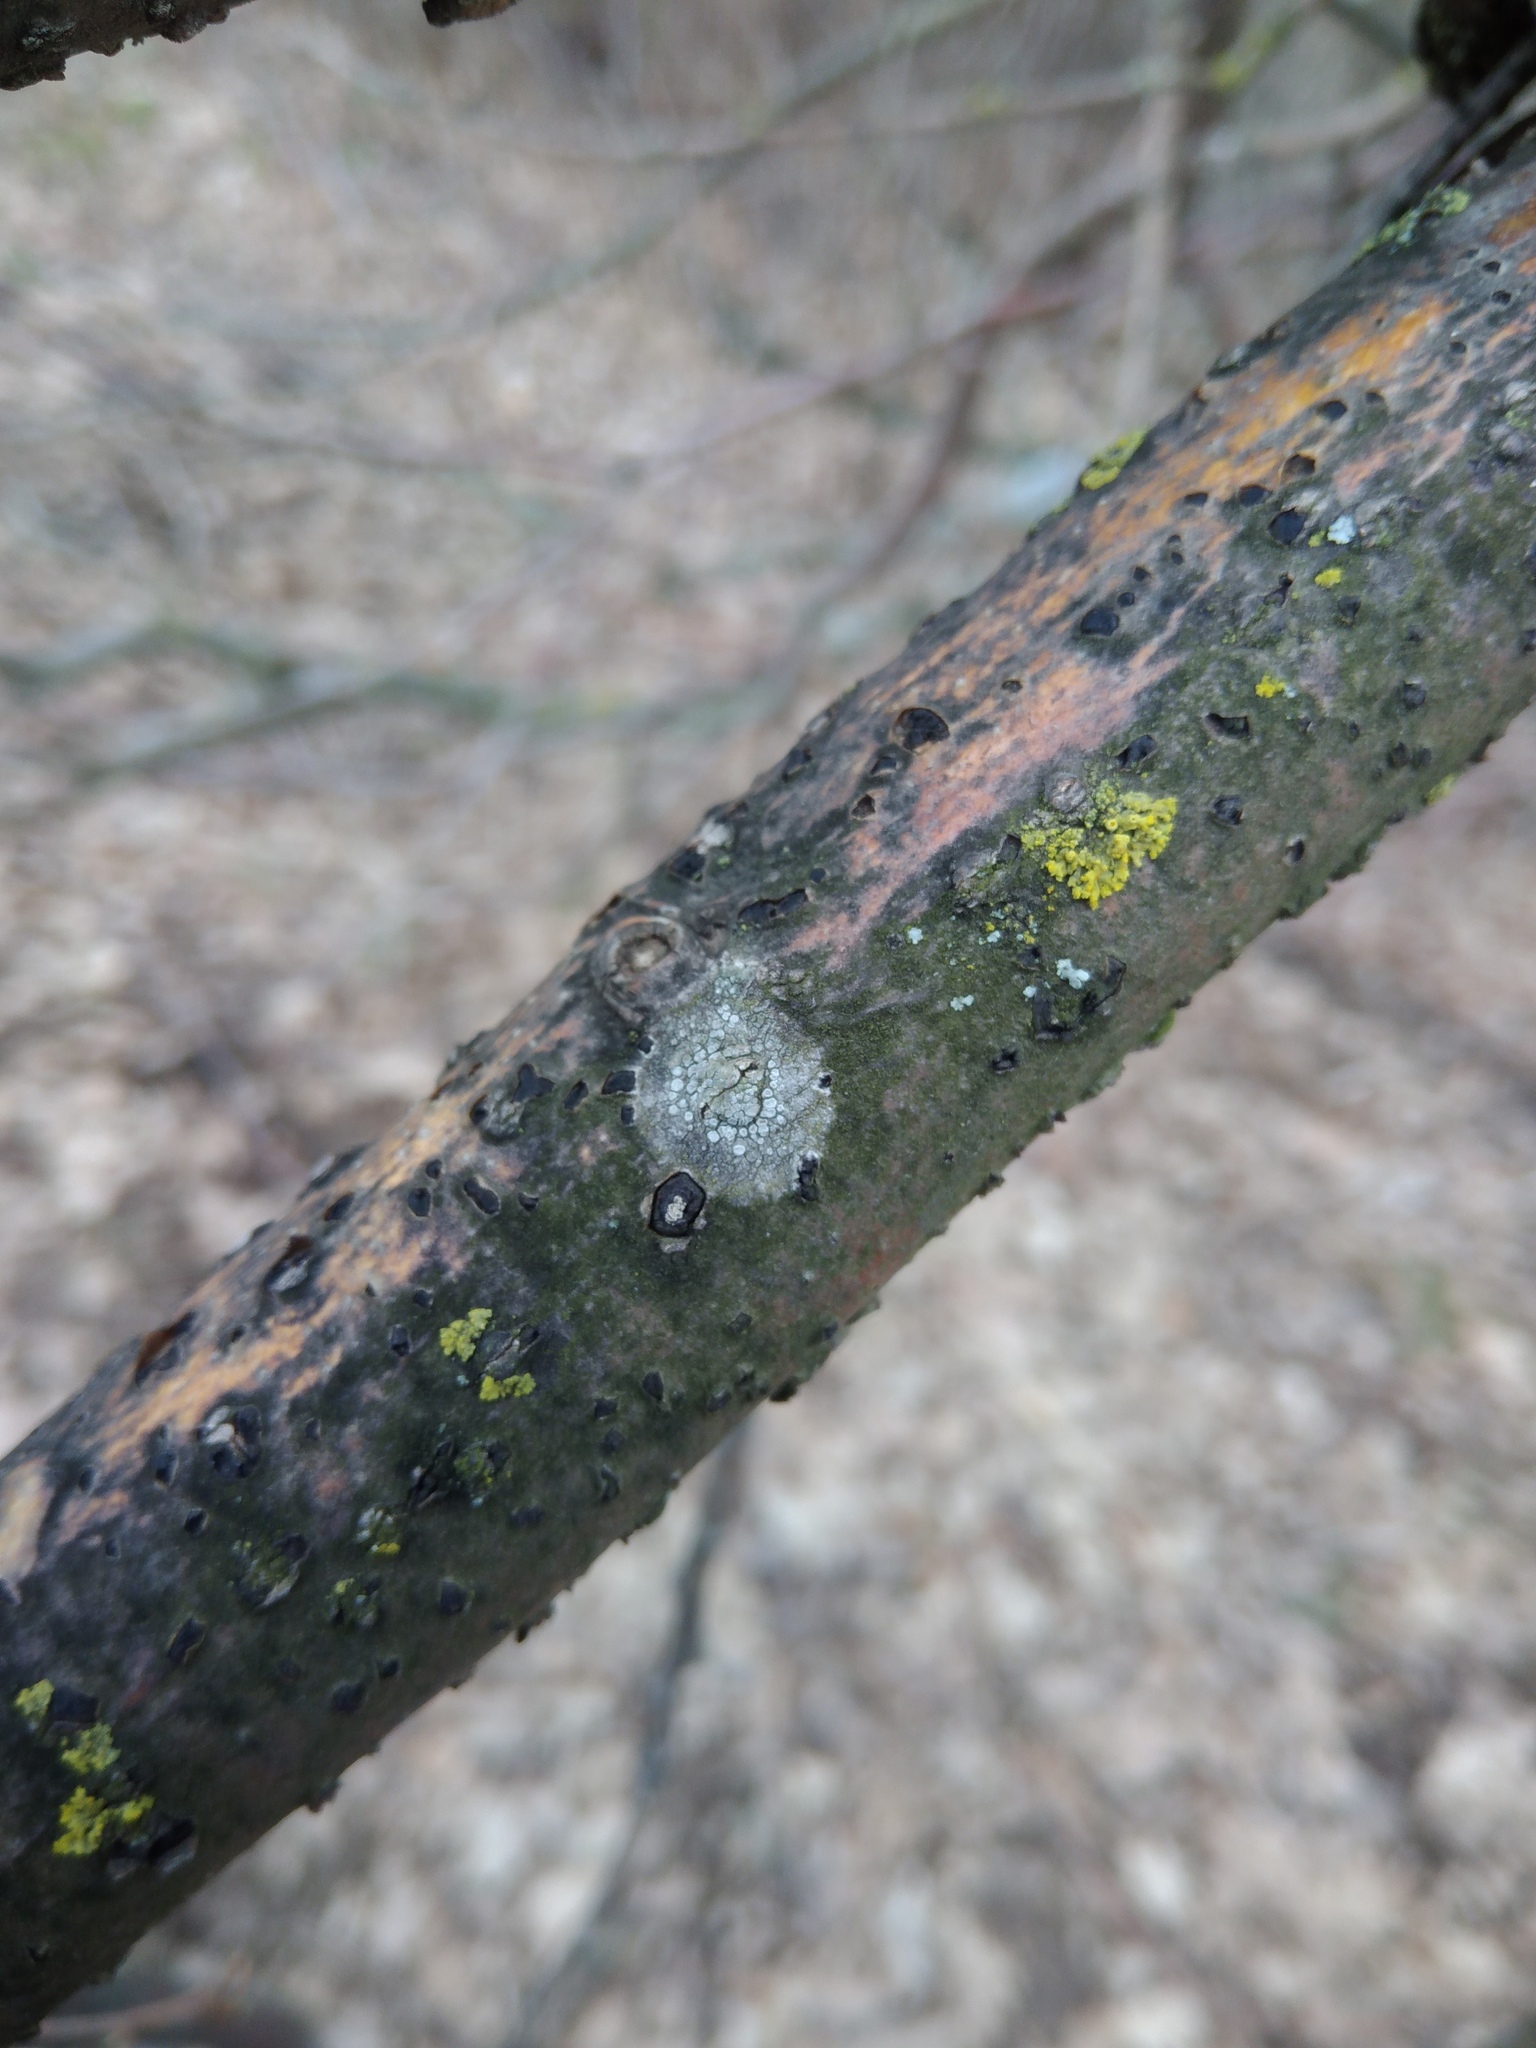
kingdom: Fungi
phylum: Ascomycota
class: Lecanoromycetes
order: Lecanorales
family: Lecanoraceae
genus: Glaucomaria
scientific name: Glaucomaria carpinea
